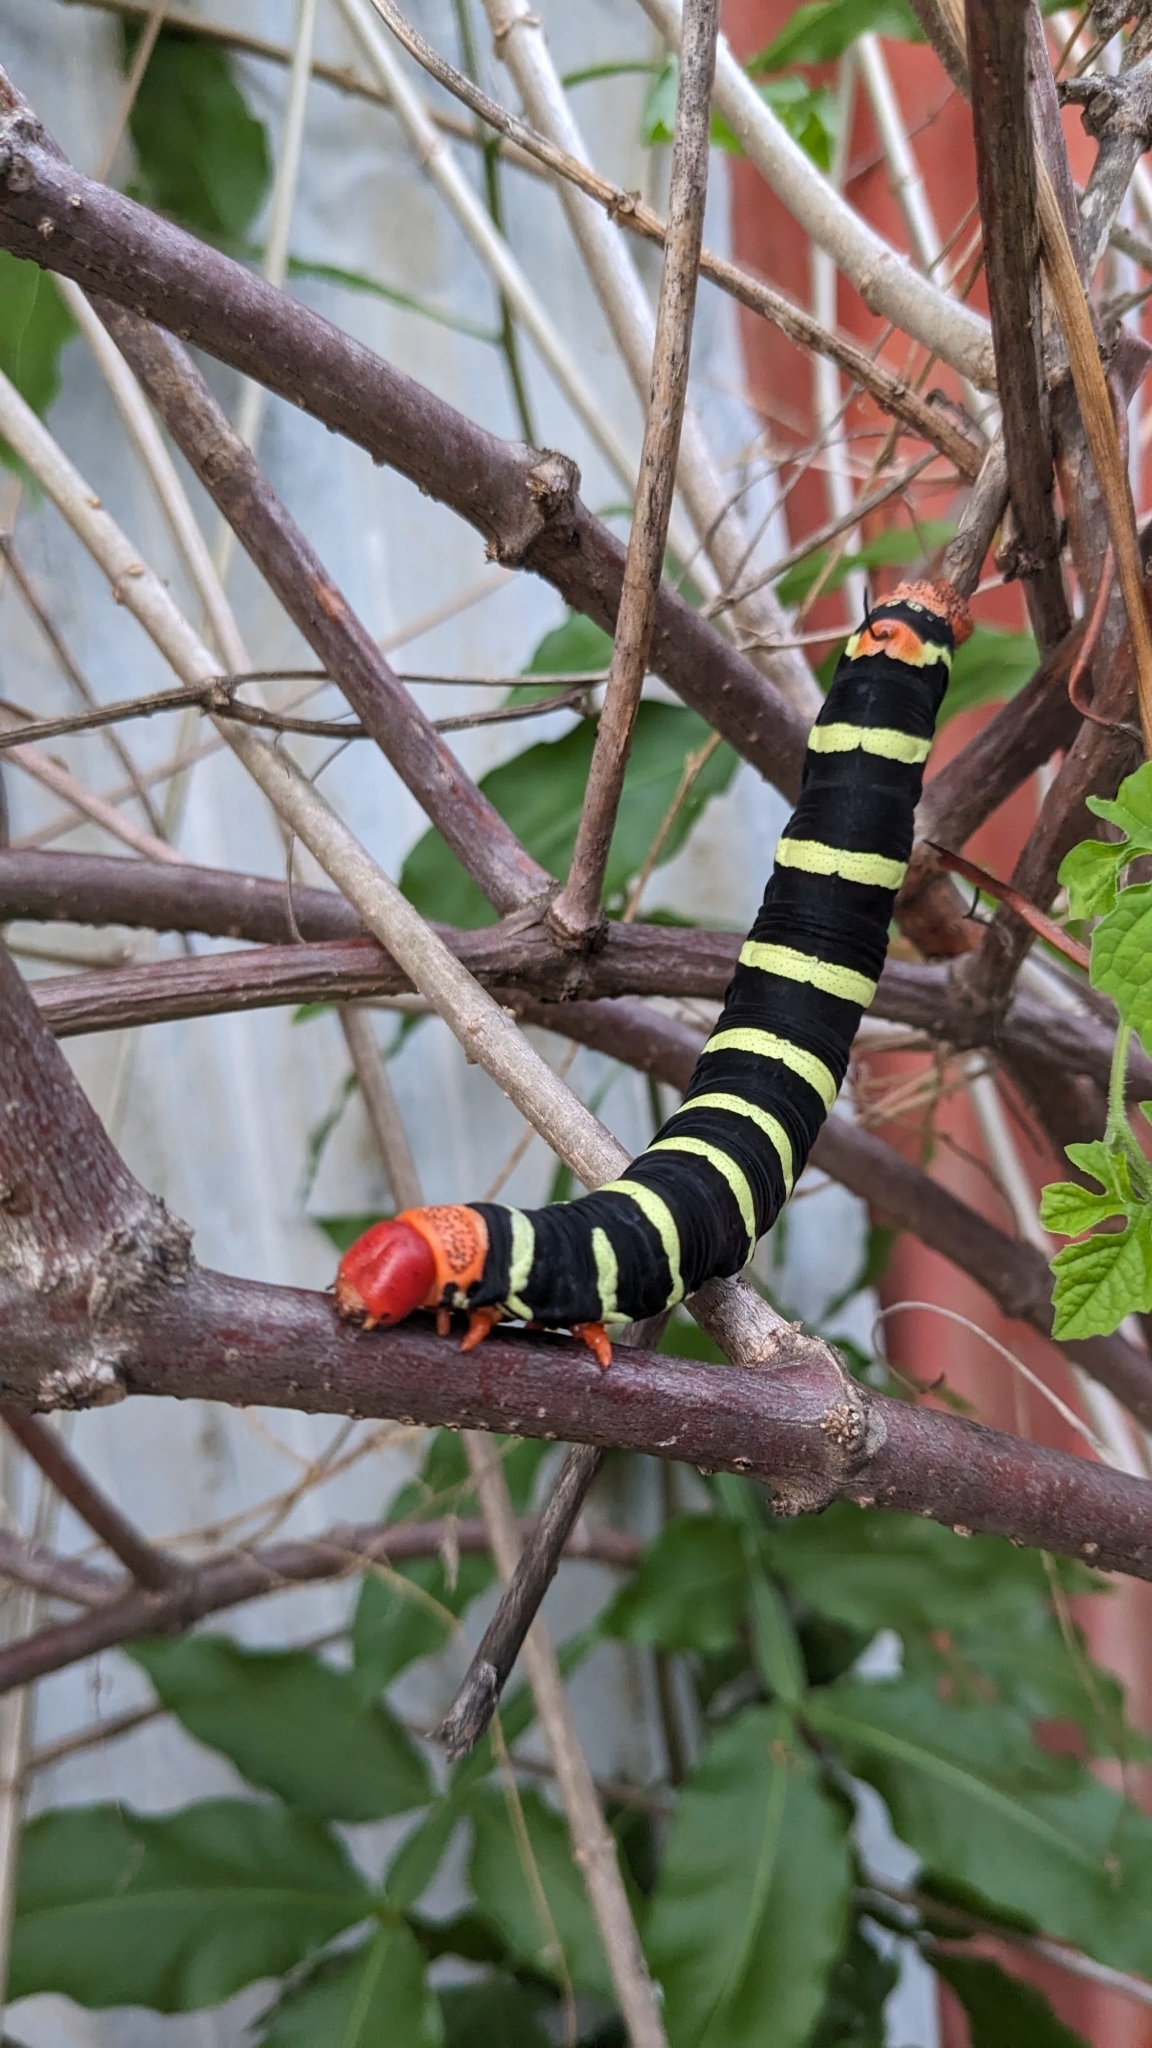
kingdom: Animalia
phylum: Arthropoda
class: Insecta
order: Lepidoptera
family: Sphingidae
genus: Pseudosphinx
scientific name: Pseudosphinx tetrio
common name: Tetrio sphinx
